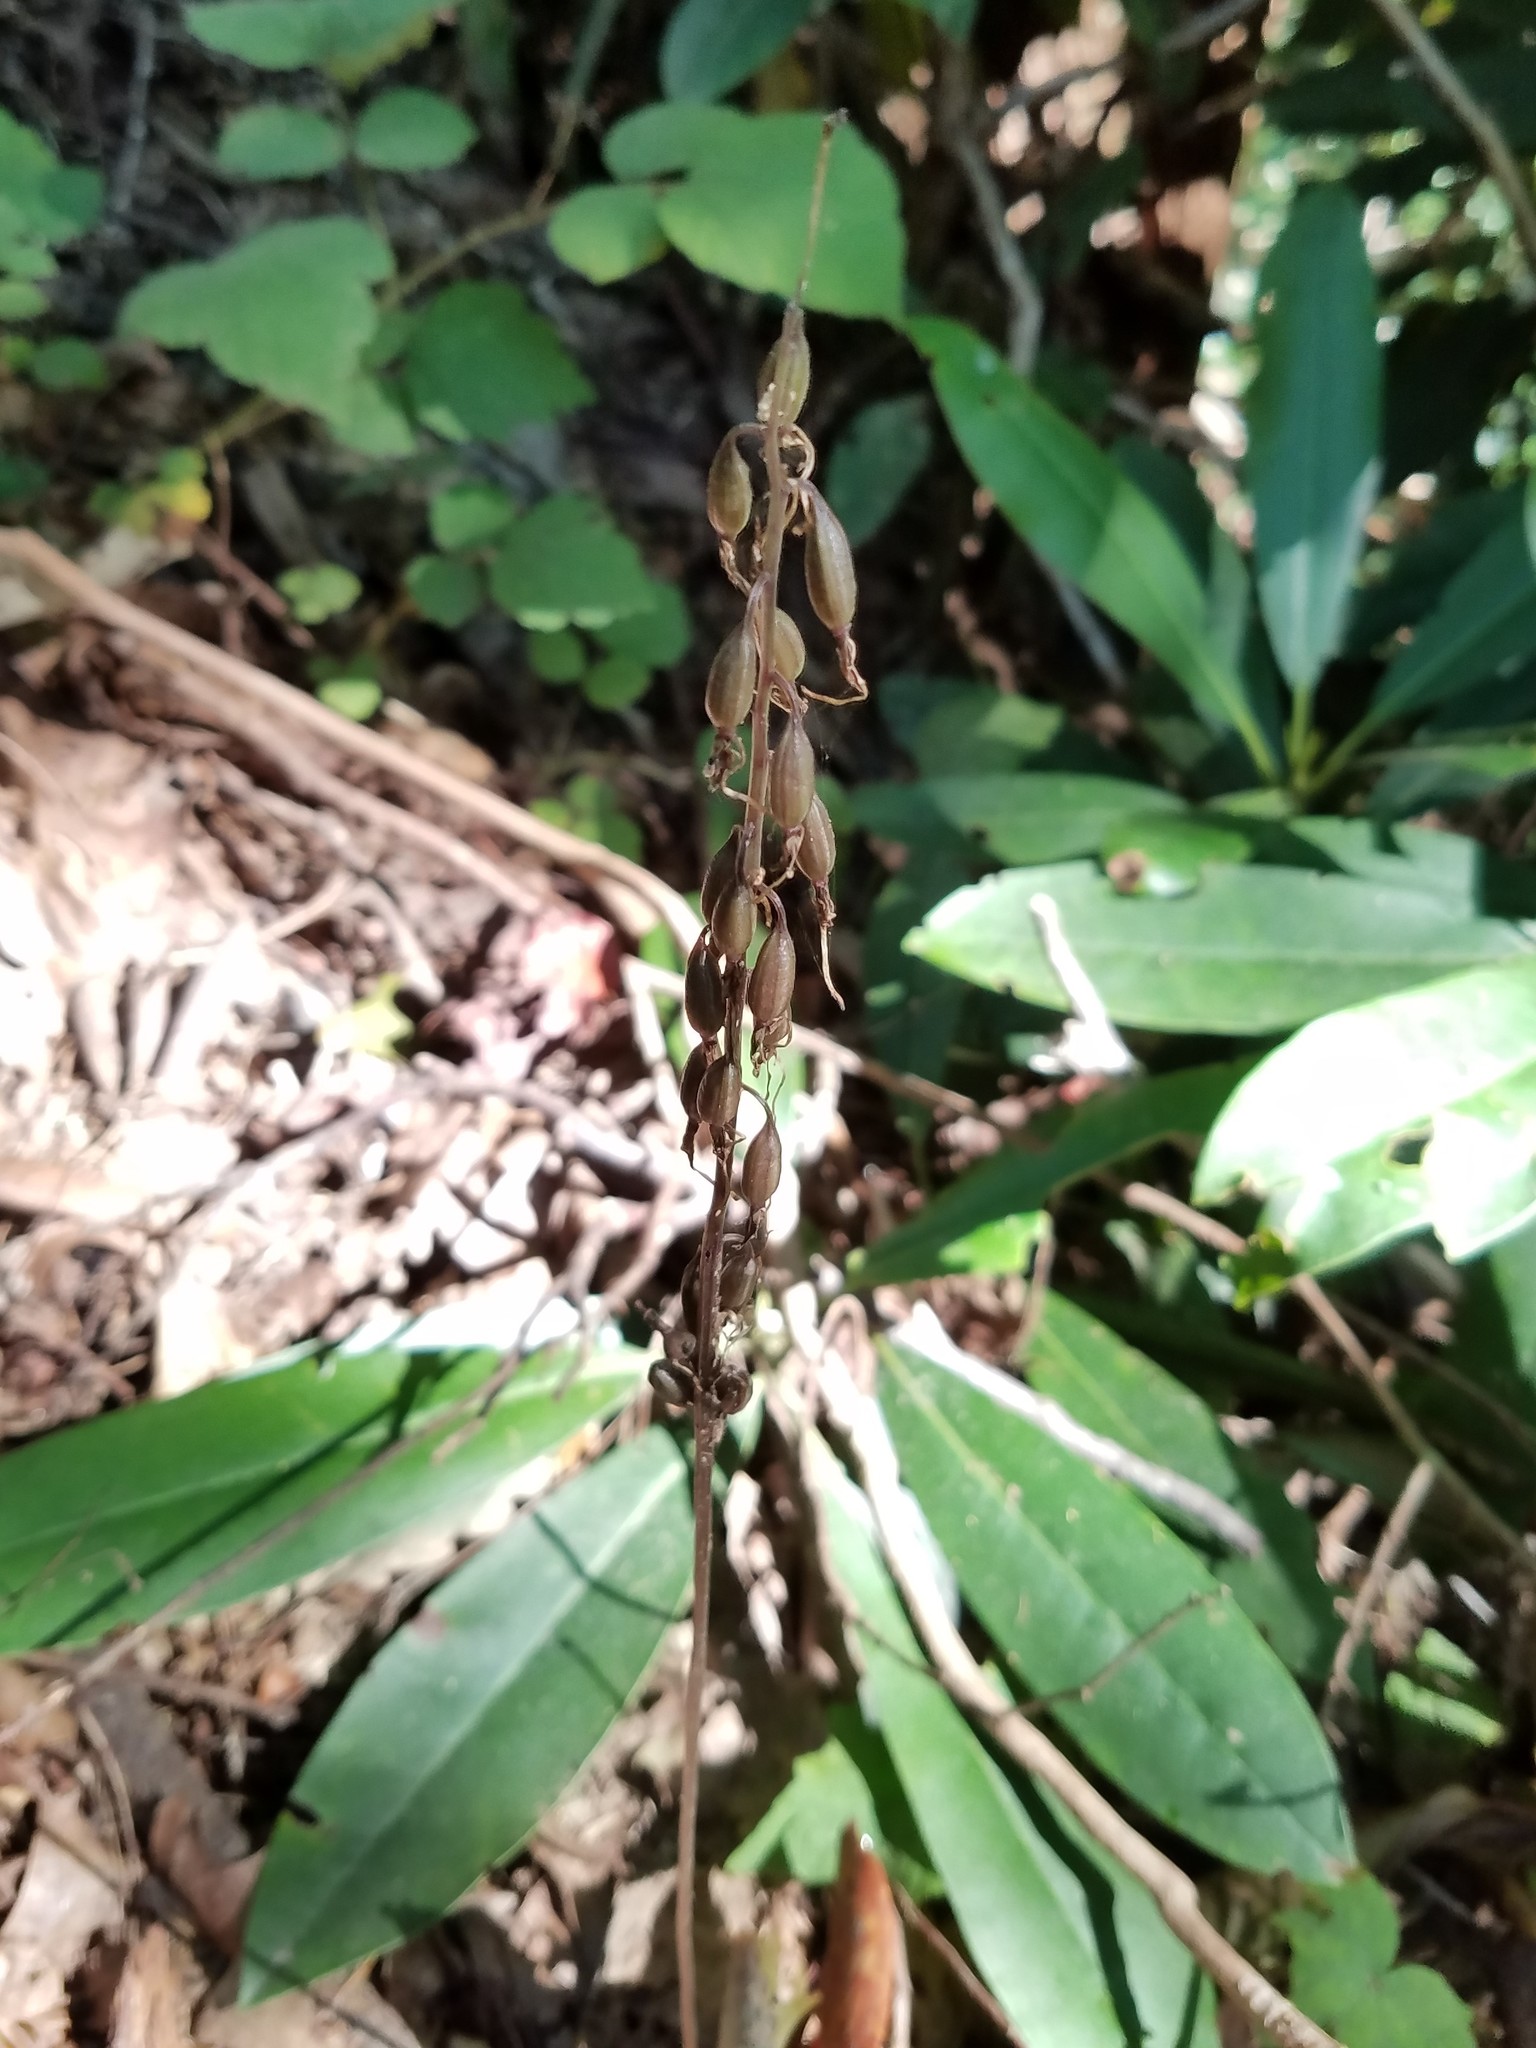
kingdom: Plantae
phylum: Tracheophyta
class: Liliopsida
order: Asparagales
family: Orchidaceae
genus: Tipularia
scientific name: Tipularia discolor
